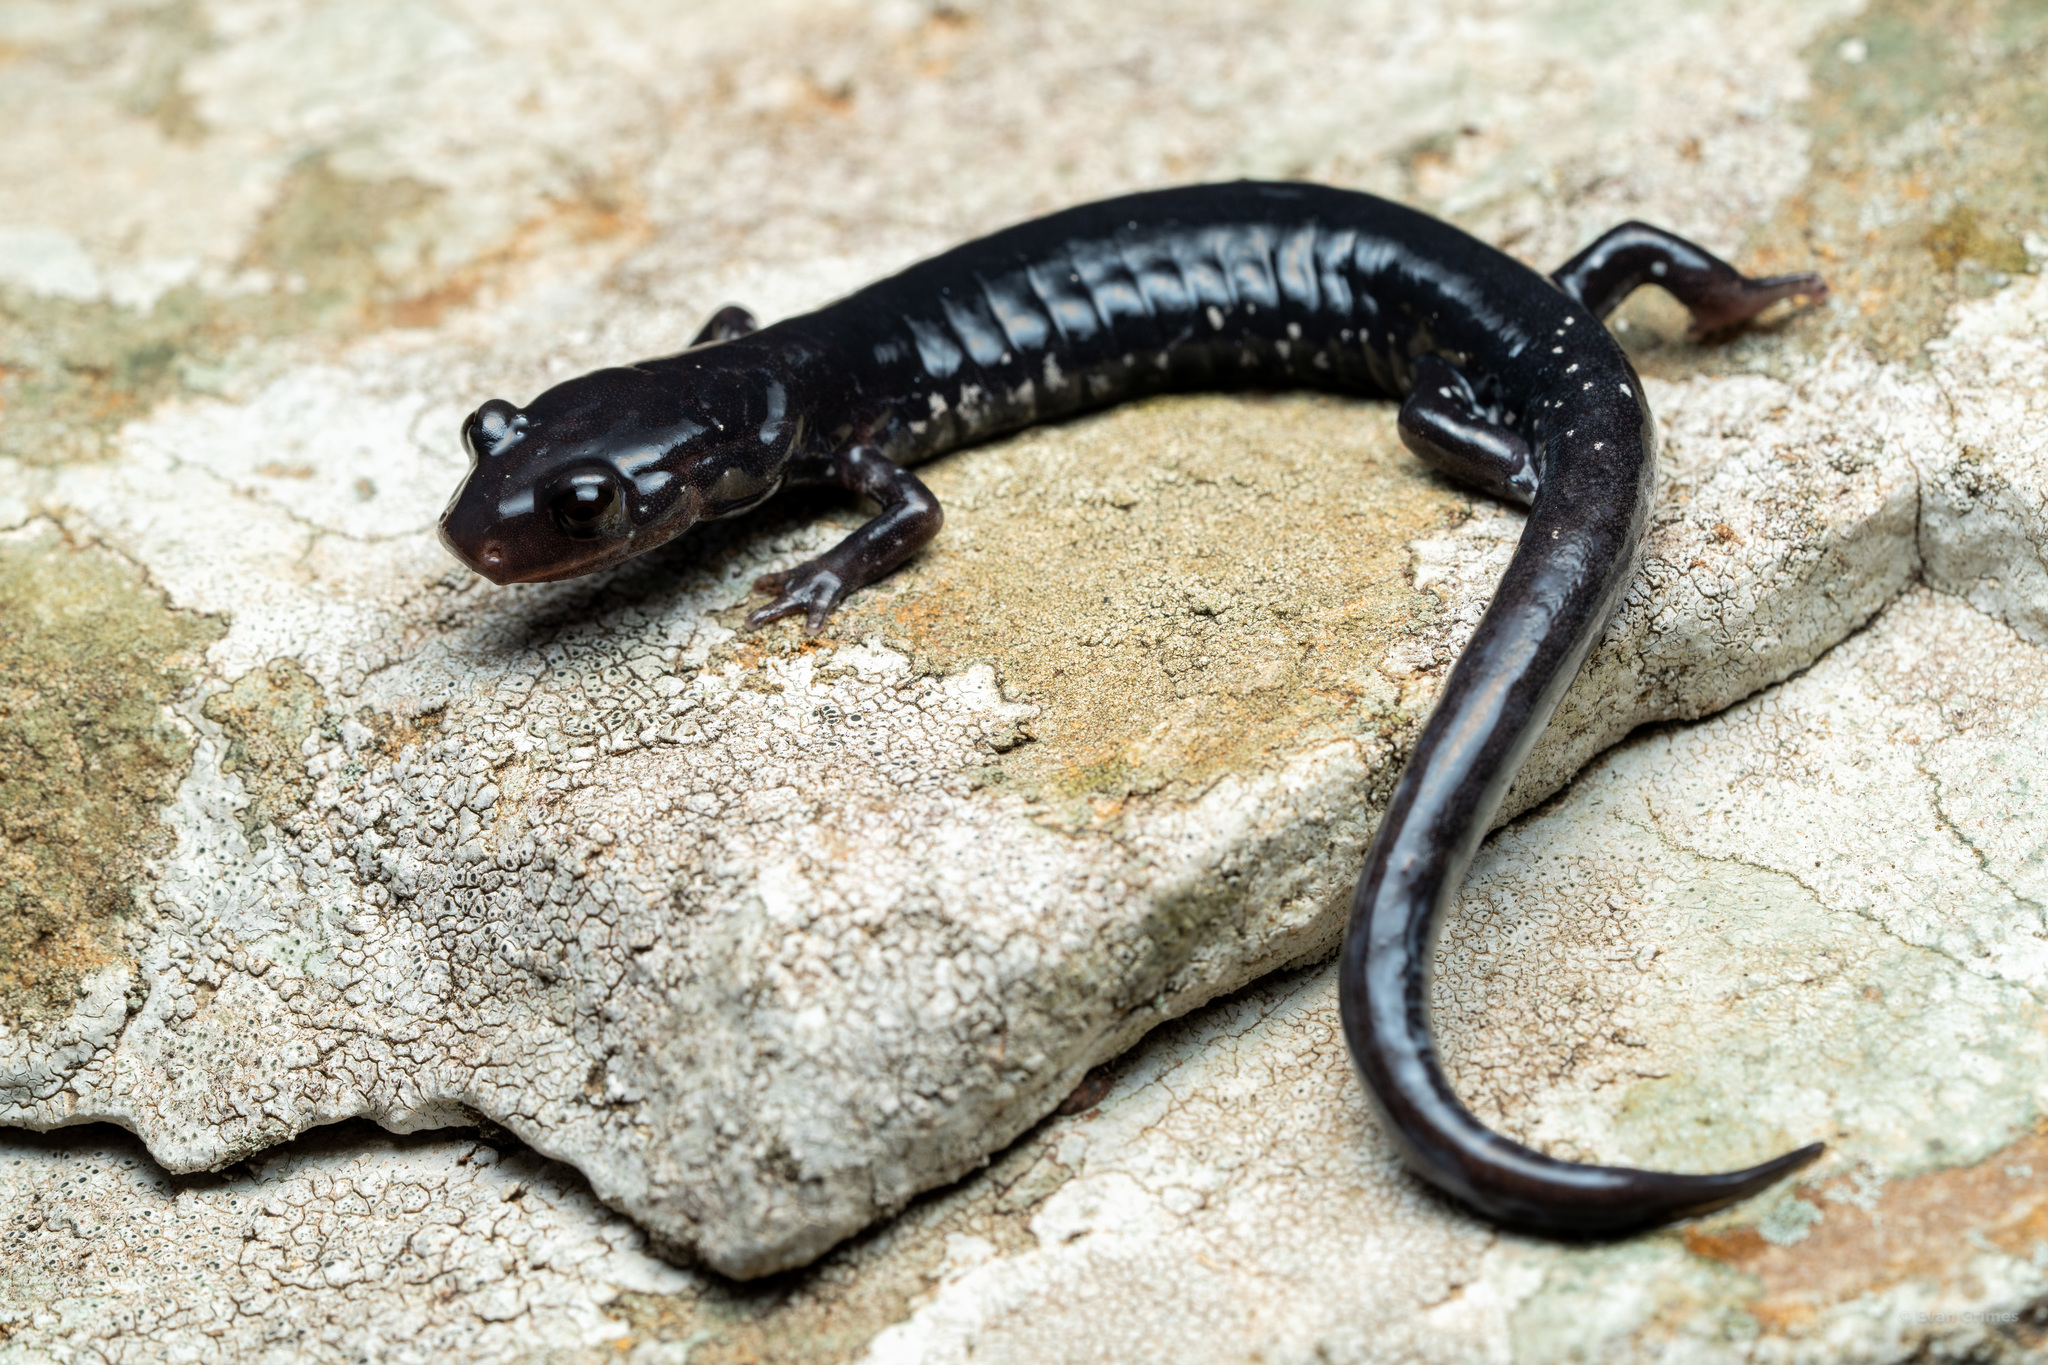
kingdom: Animalia
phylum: Chordata
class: Amphibia
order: Caudata
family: Plethodontidae
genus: Plethodon
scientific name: Plethodon albagula
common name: Western slimy salamander
